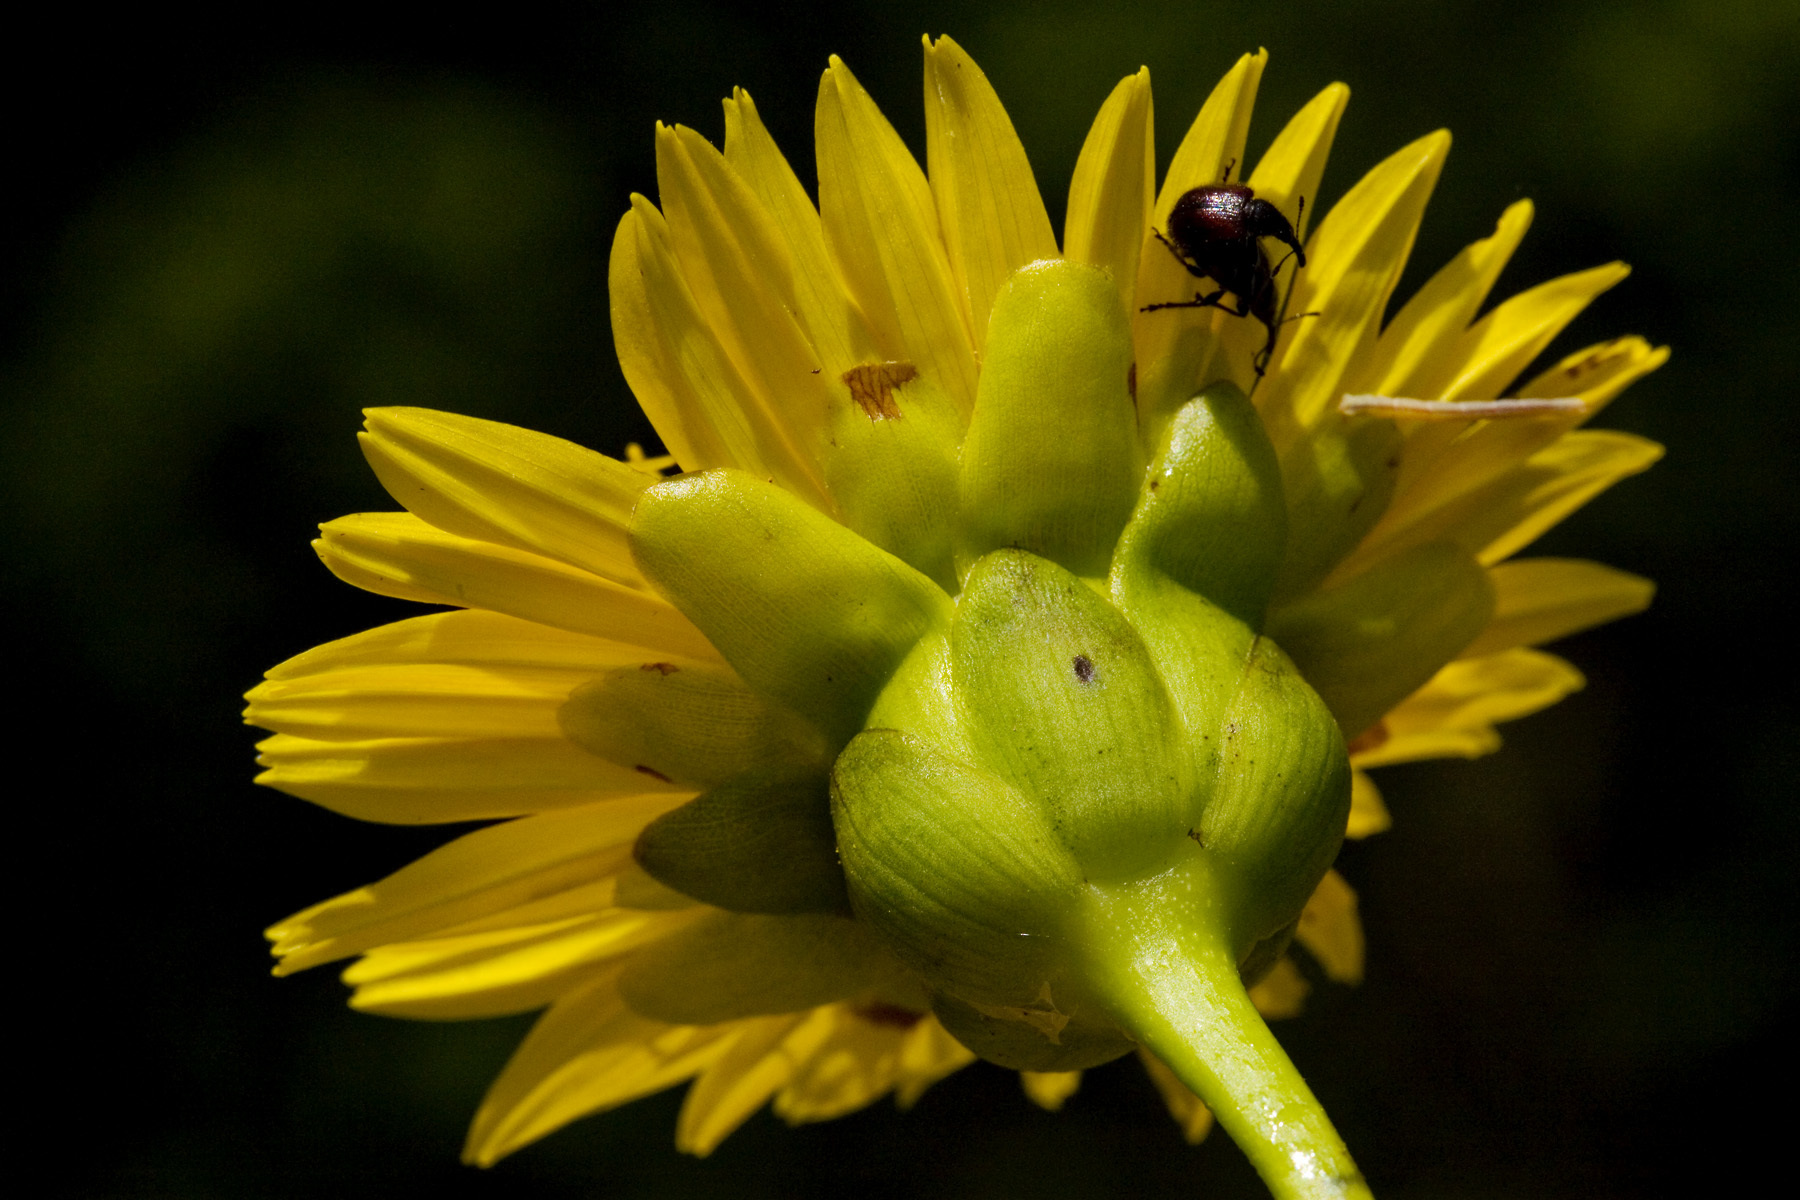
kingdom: Plantae
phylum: Tracheophyta
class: Magnoliopsida
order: Asterales
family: Asteraceae
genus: Silphium
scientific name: Silphium terebinthinaceum
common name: Basal-leaf rosinweed
